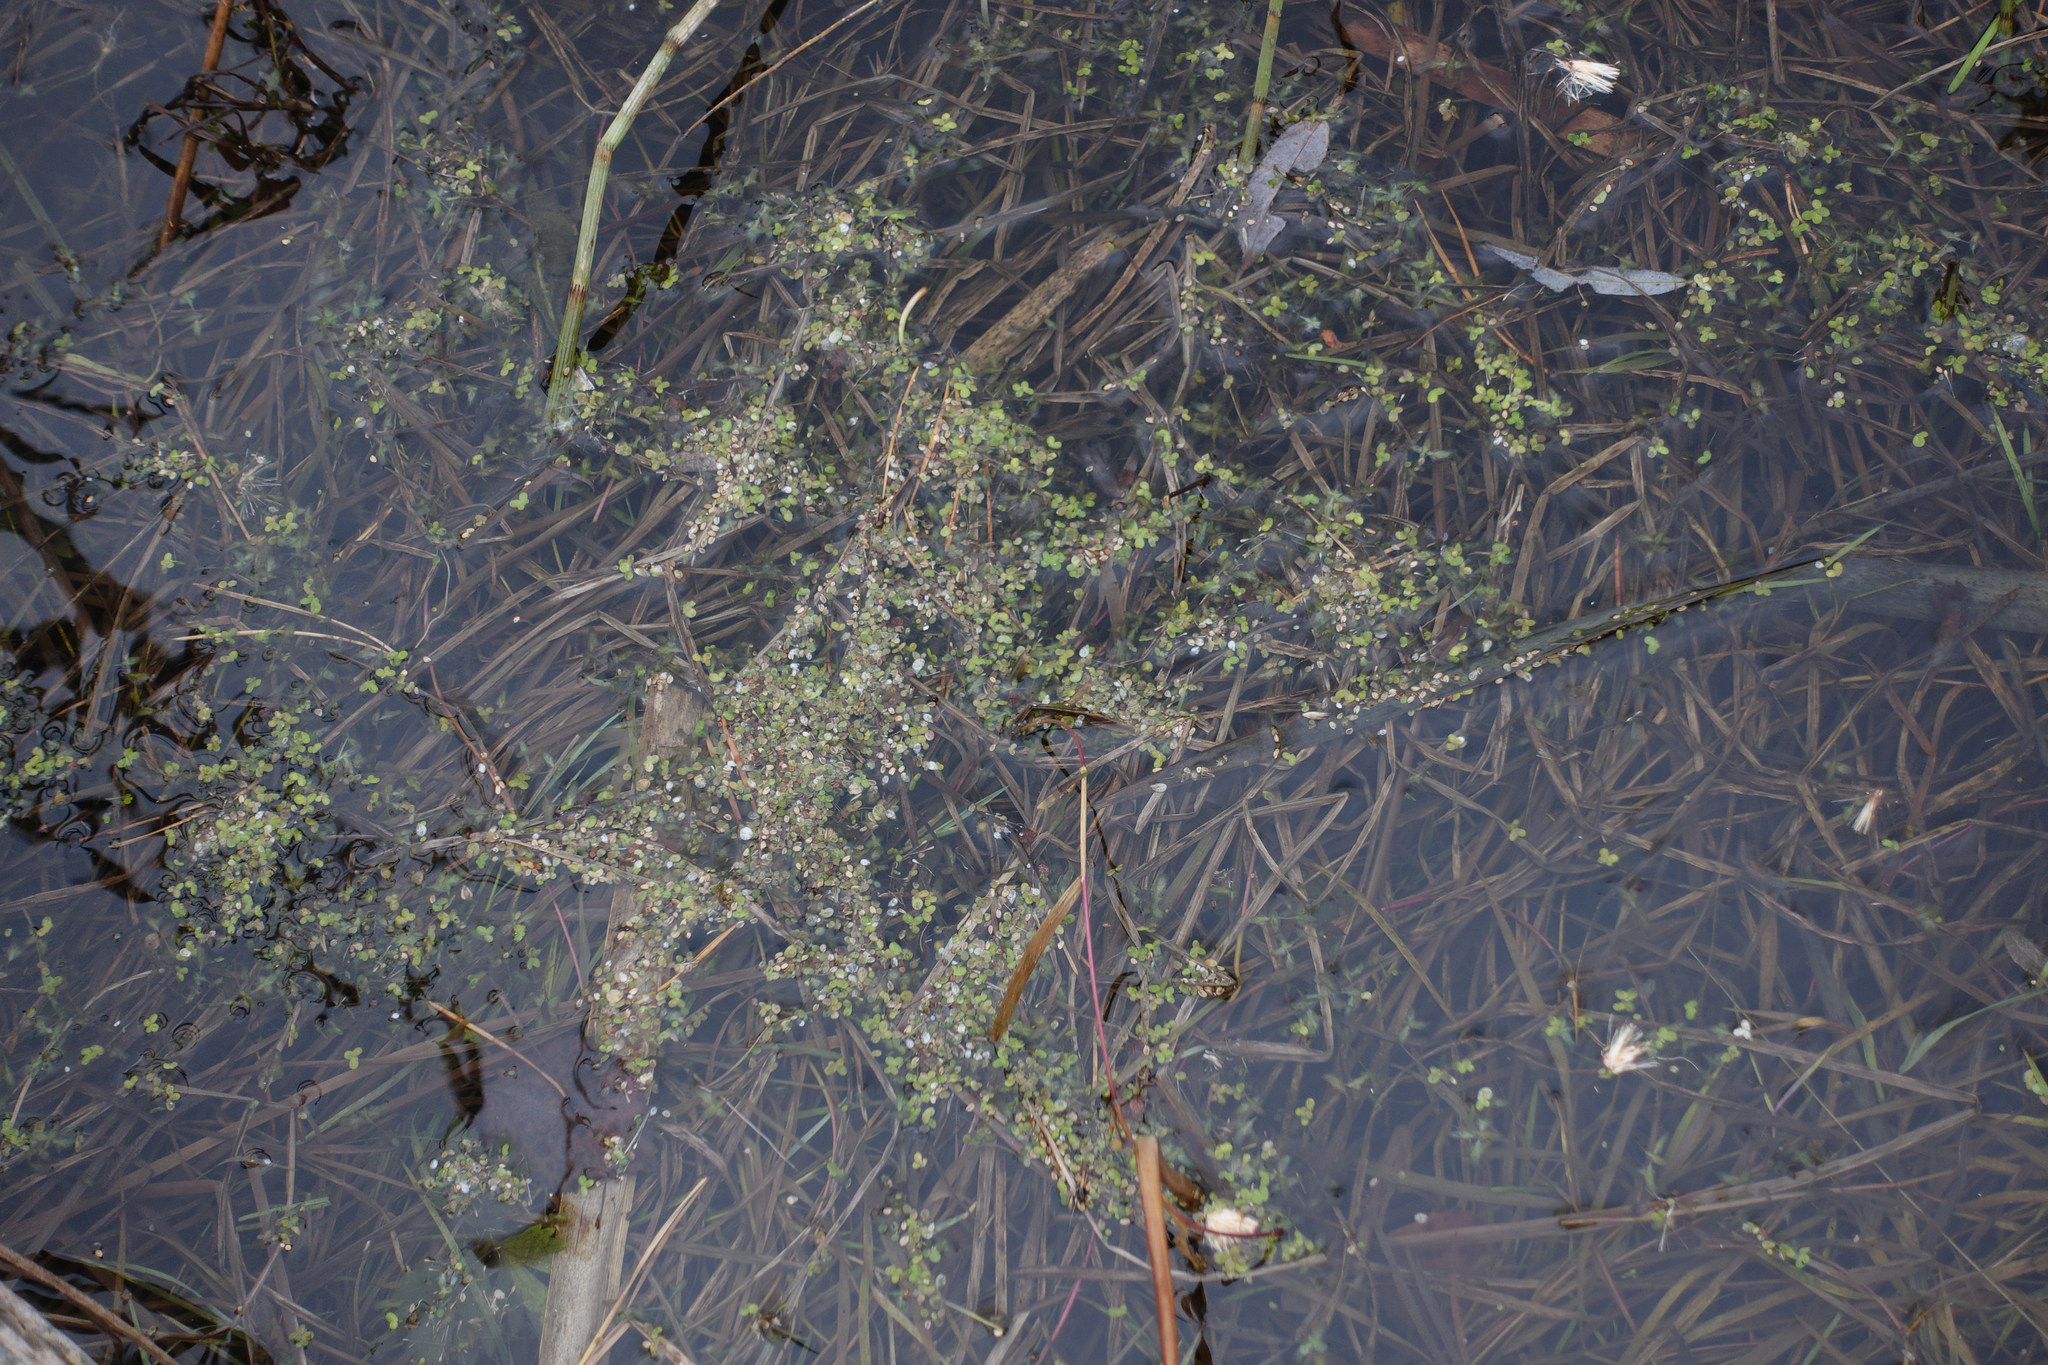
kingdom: Plantae
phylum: Tracheophyta
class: Liliopsida
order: Alismatales
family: Araceae
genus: Lemna
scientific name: Lemna minor
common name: Common duckweed
